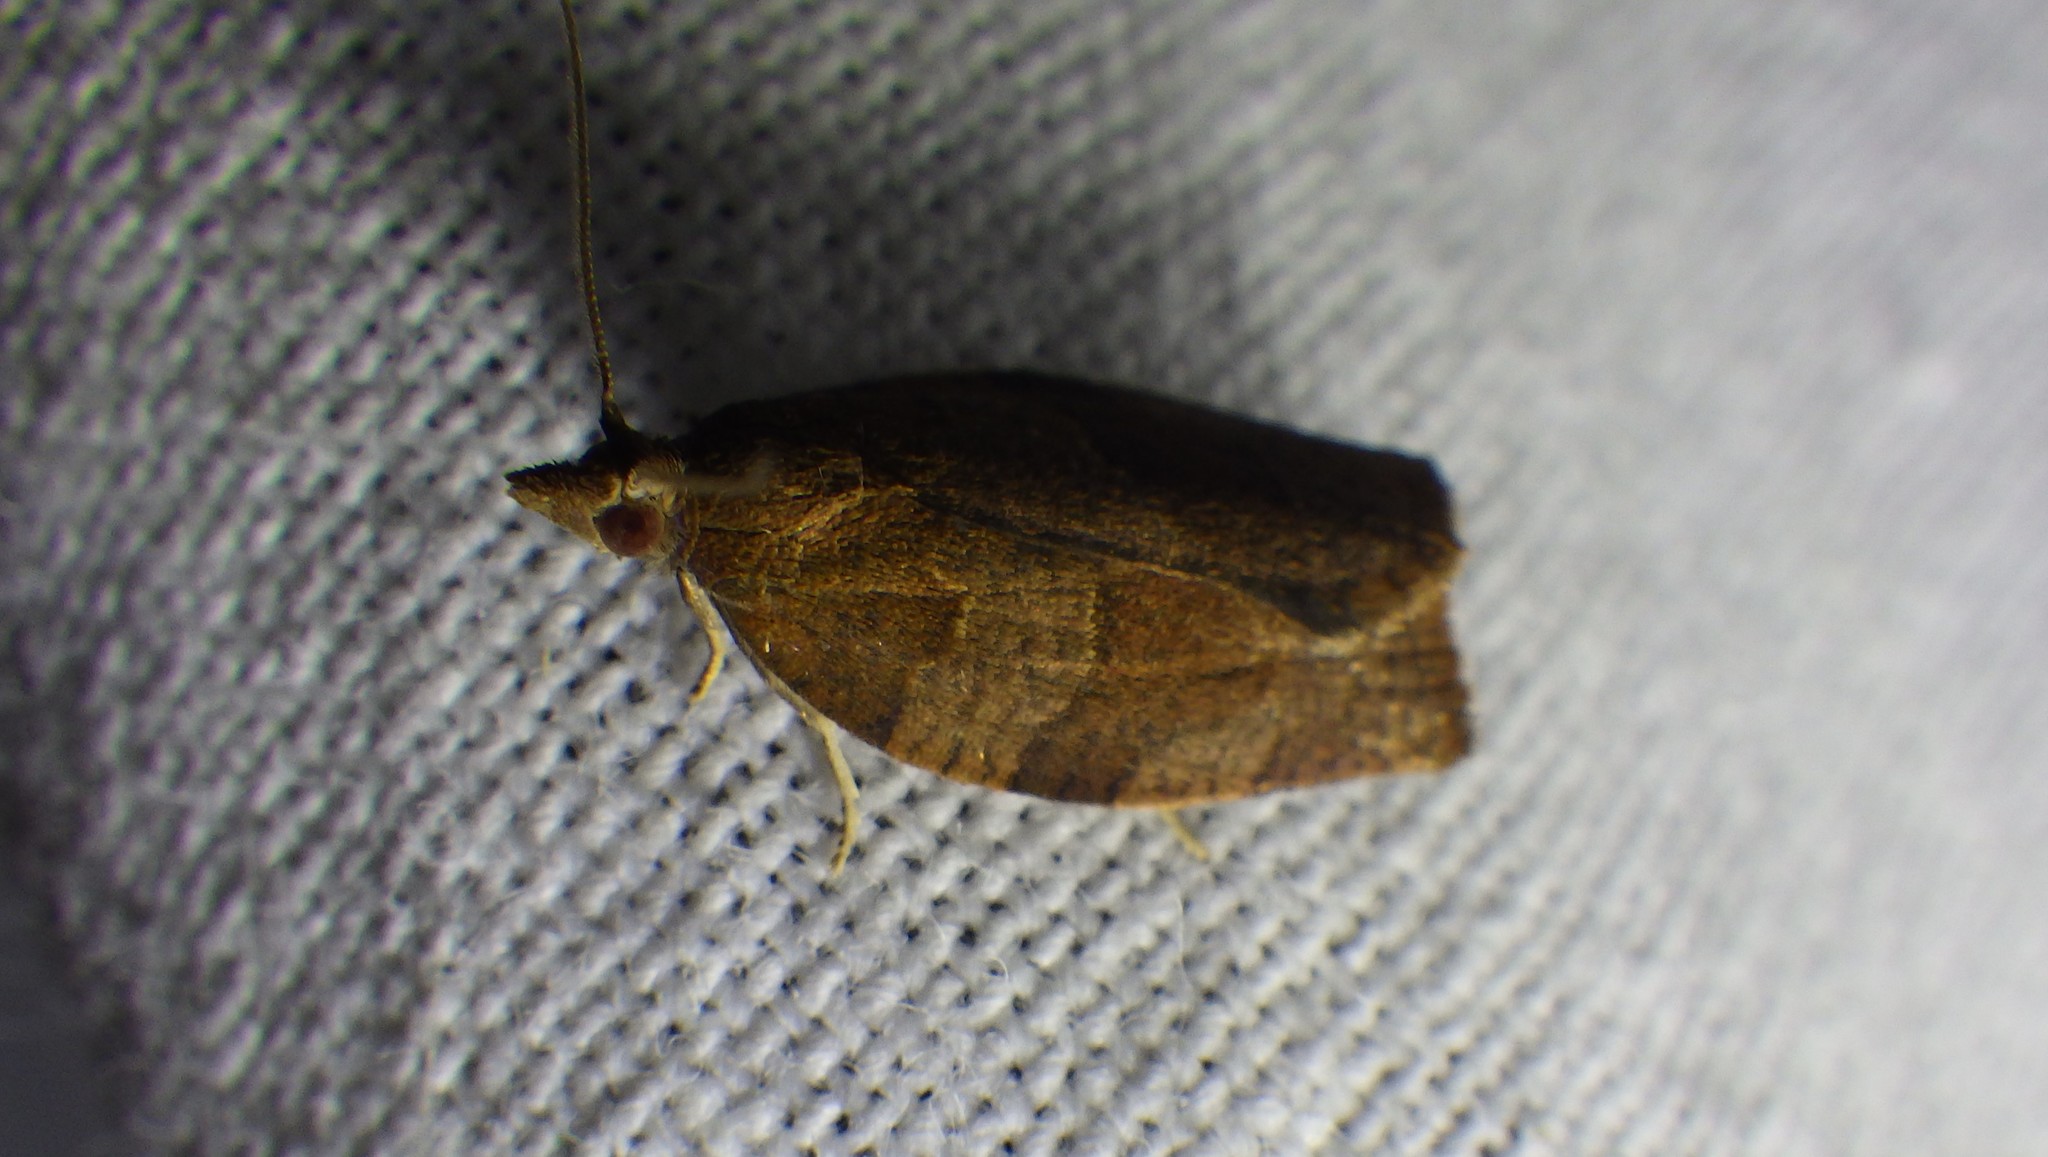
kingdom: Animalia
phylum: Arthropoda
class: Insecta
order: Lepidoptera
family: Tortricidae
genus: Pandemis
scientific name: Pandemis heparana
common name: Dark fruit-tree tortrix
